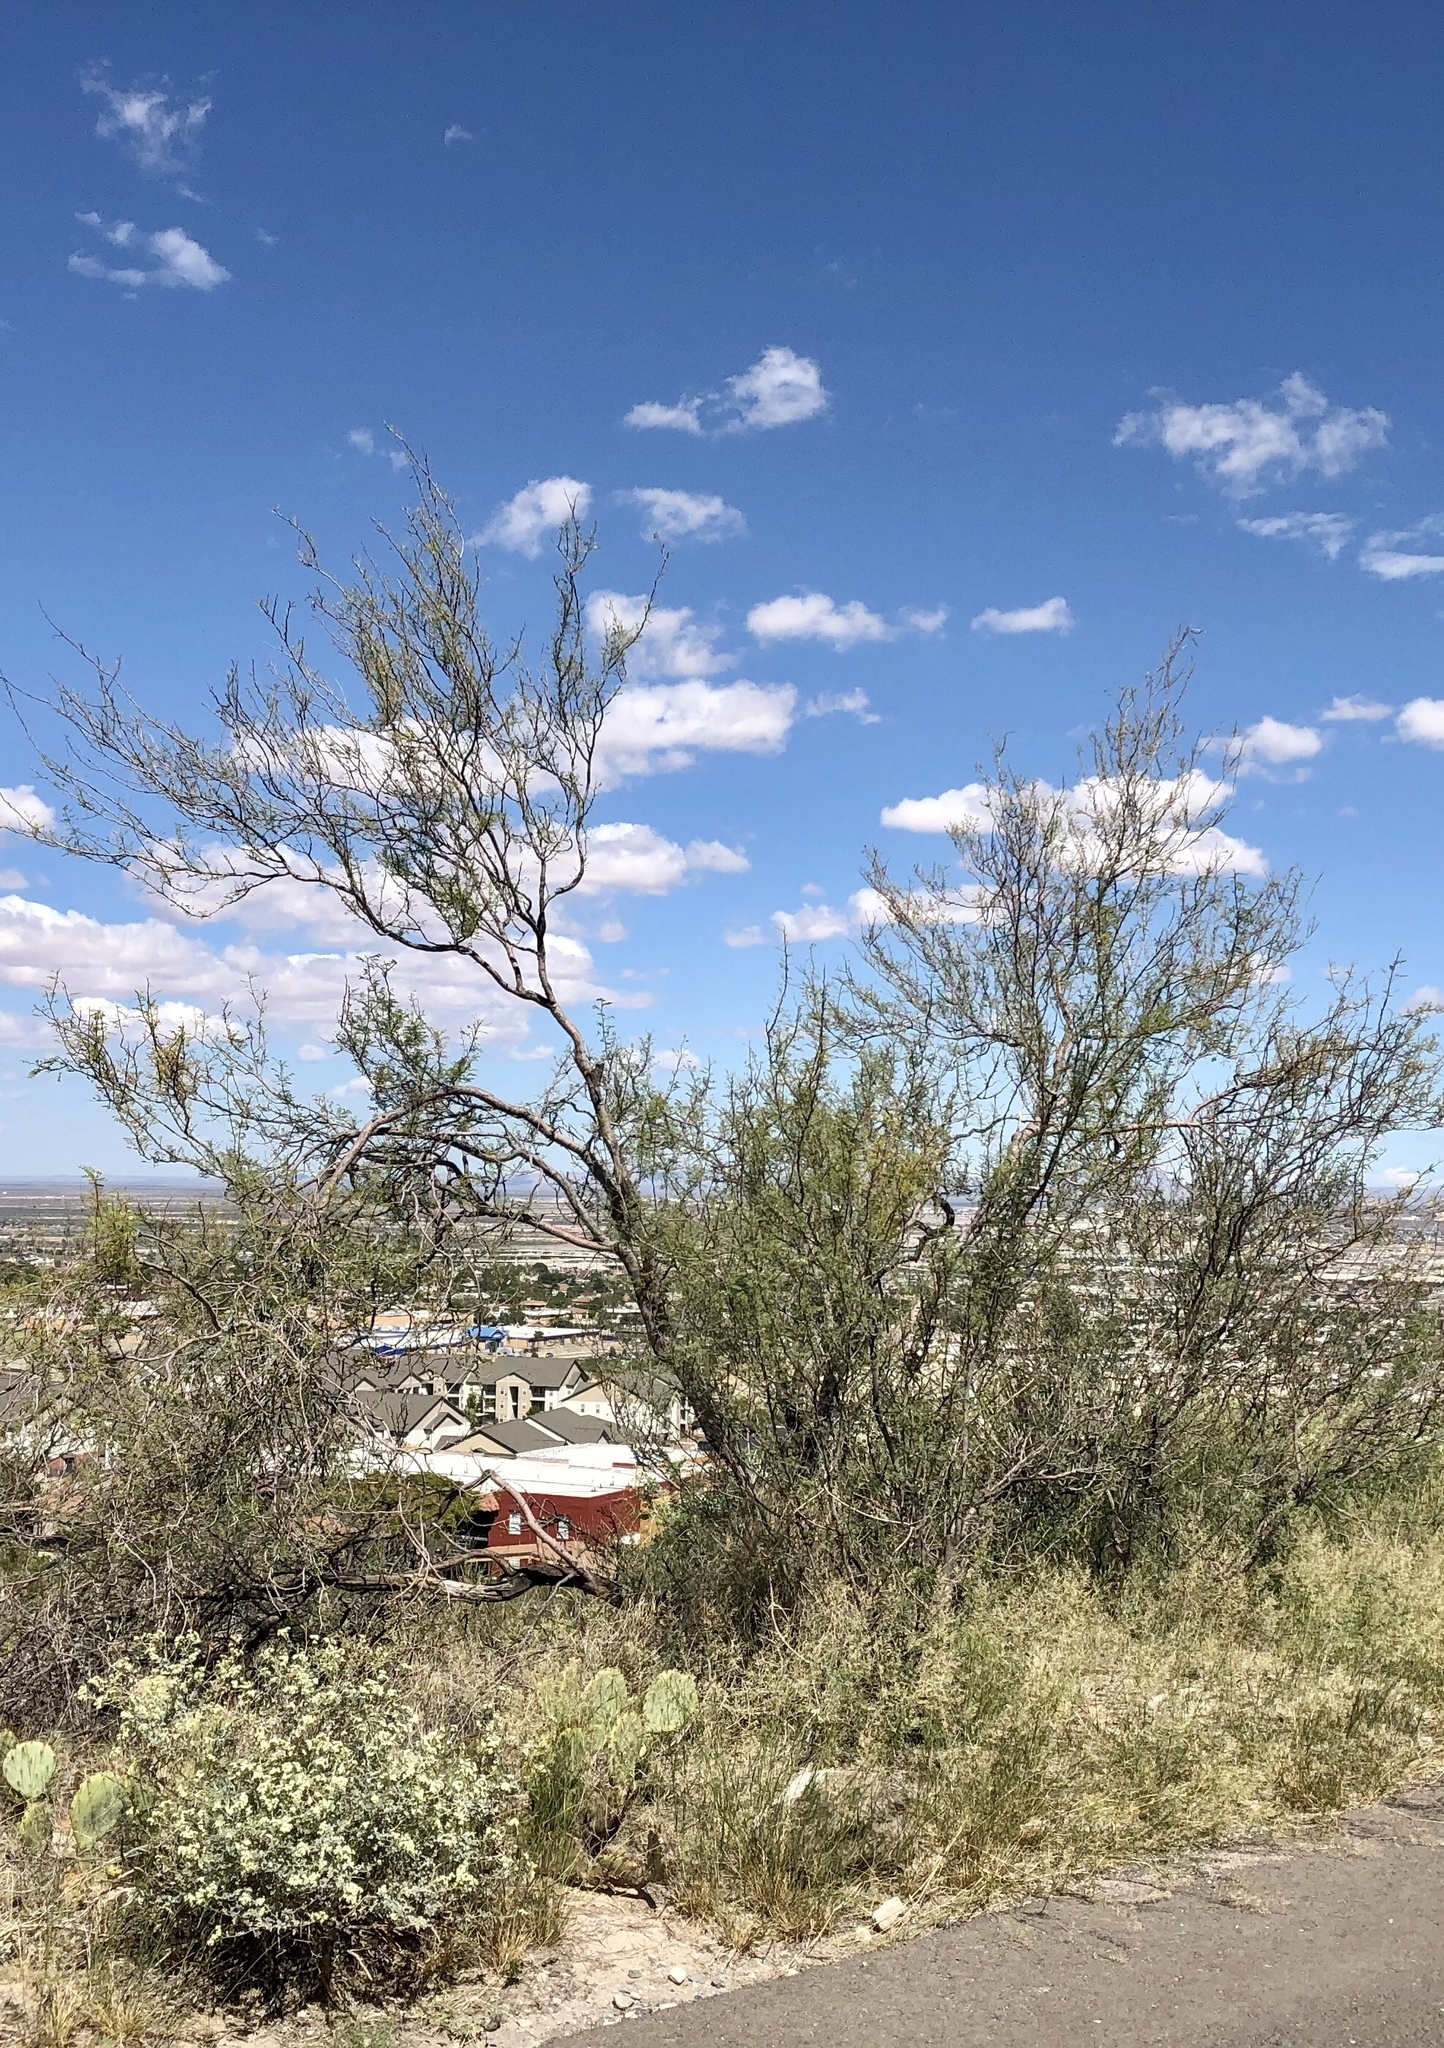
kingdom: Plantae
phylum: Tracheophyta
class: Magnoliopsida
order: Fabales
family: Fabaceae
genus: Vachellia
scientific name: Vachellia constricta
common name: Mescat acacia
